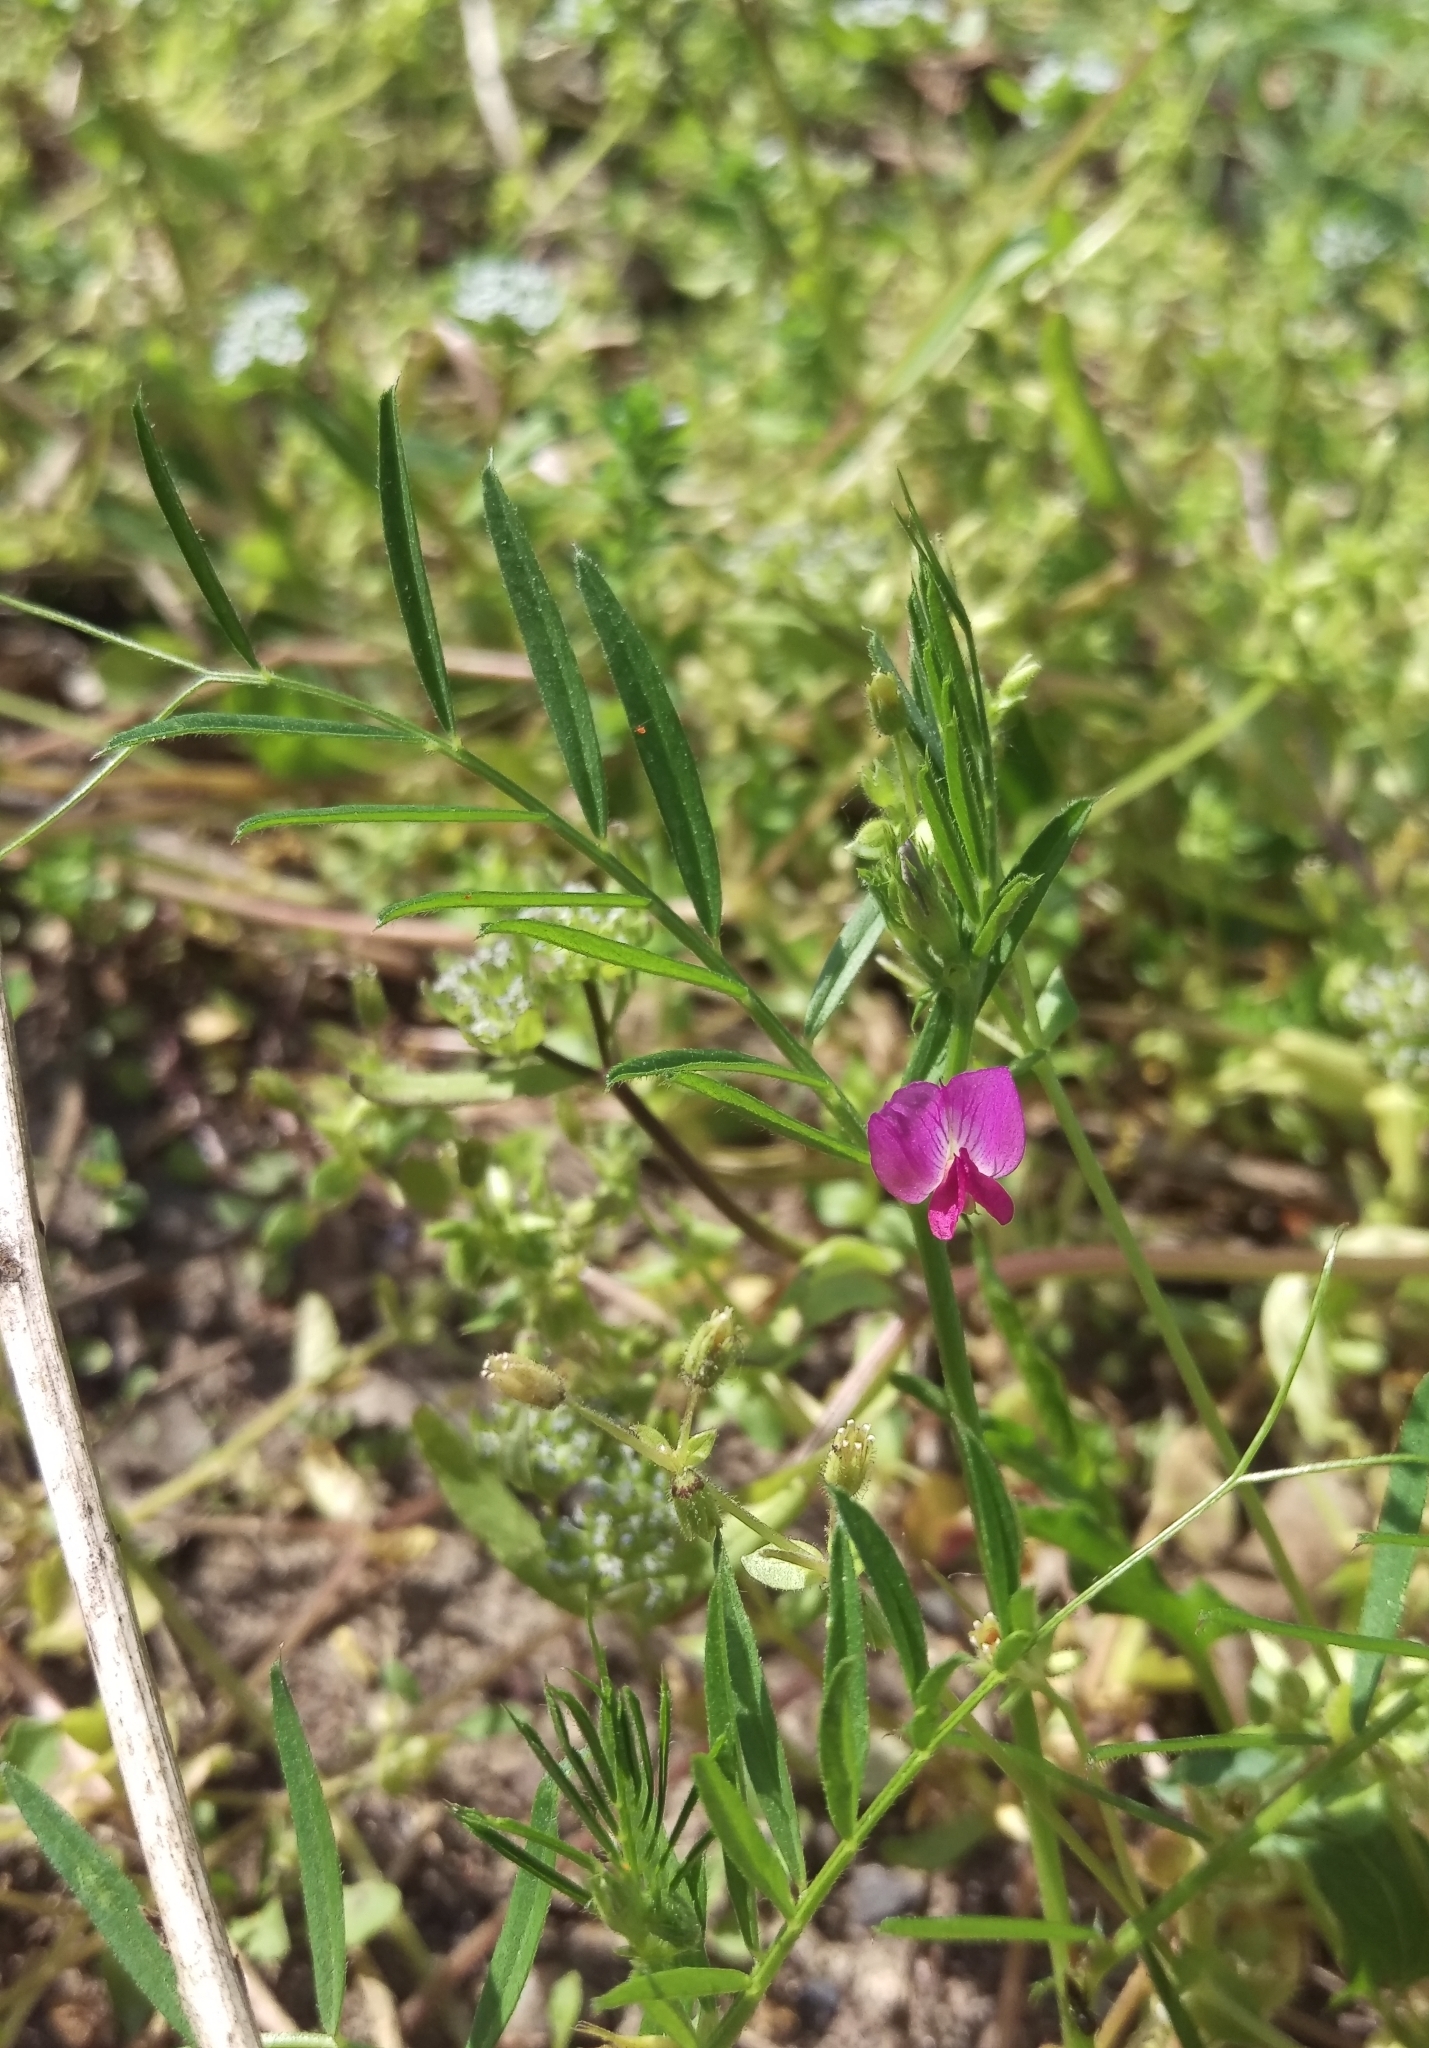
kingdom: Plantae
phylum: Tracheophyta
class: Magnoliopsida
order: Fabales
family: Fabaceae
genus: Vicia
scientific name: Vicia sativa
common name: Garden vetch
